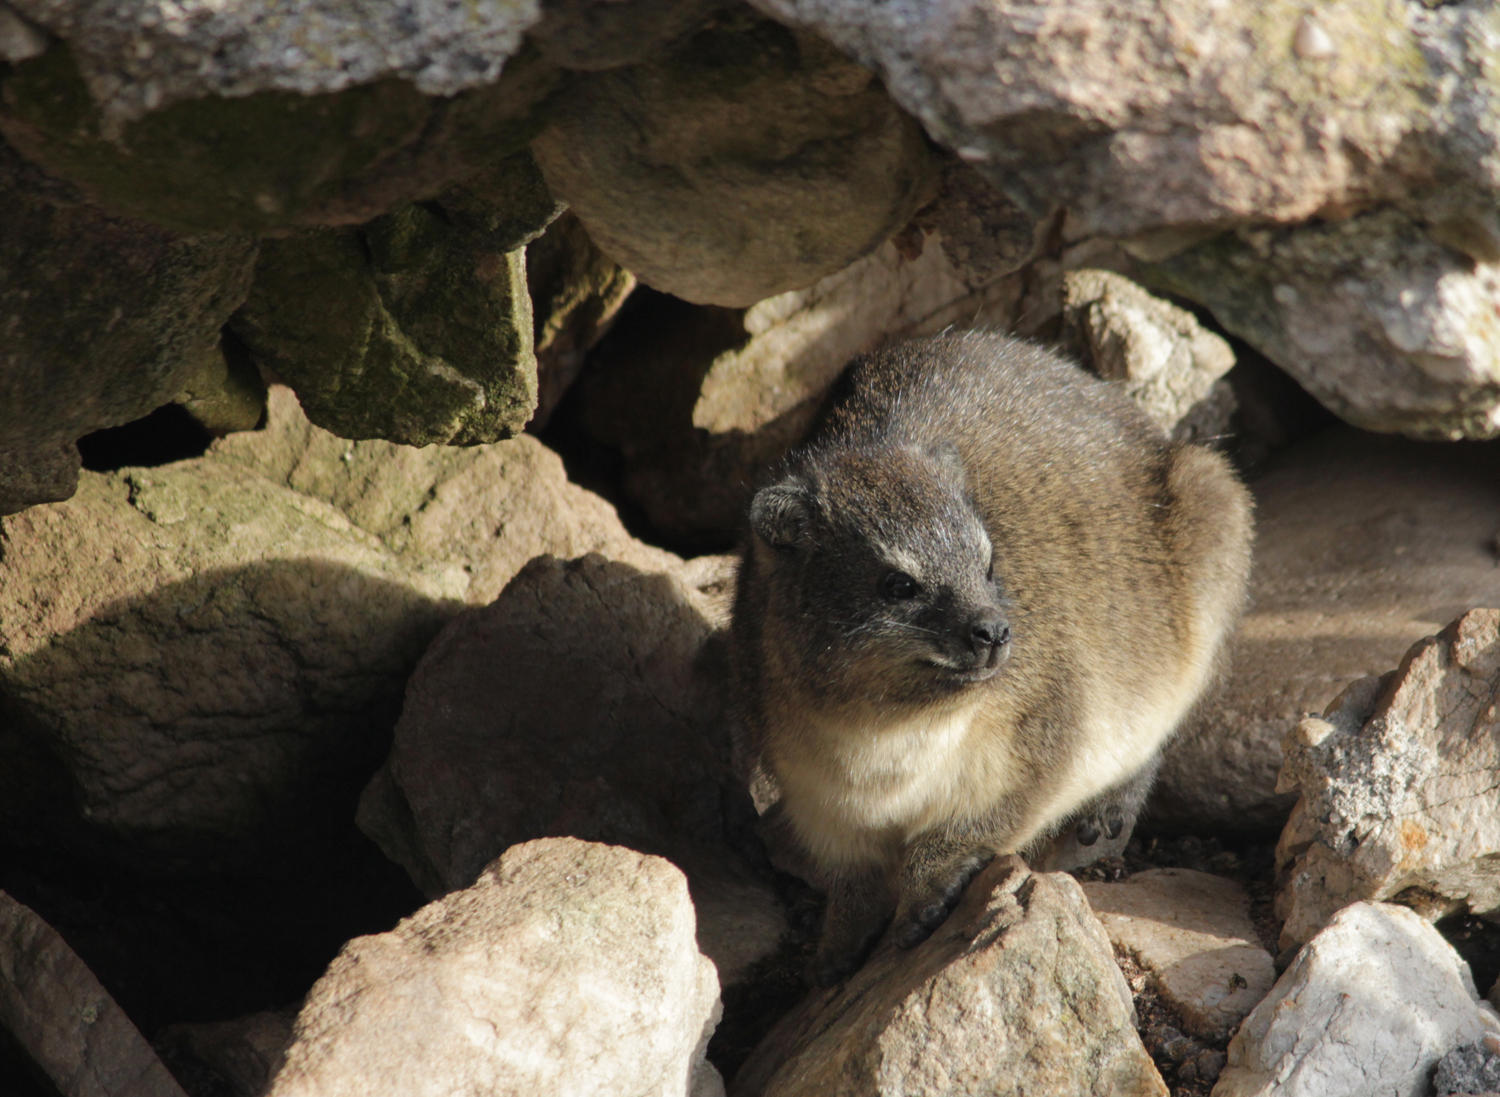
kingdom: Animalia
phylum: Chordata
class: Mammalia
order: Hyracoidea
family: Procaviidae
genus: Procavia
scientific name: Procavia capensis
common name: Rock hyrax
